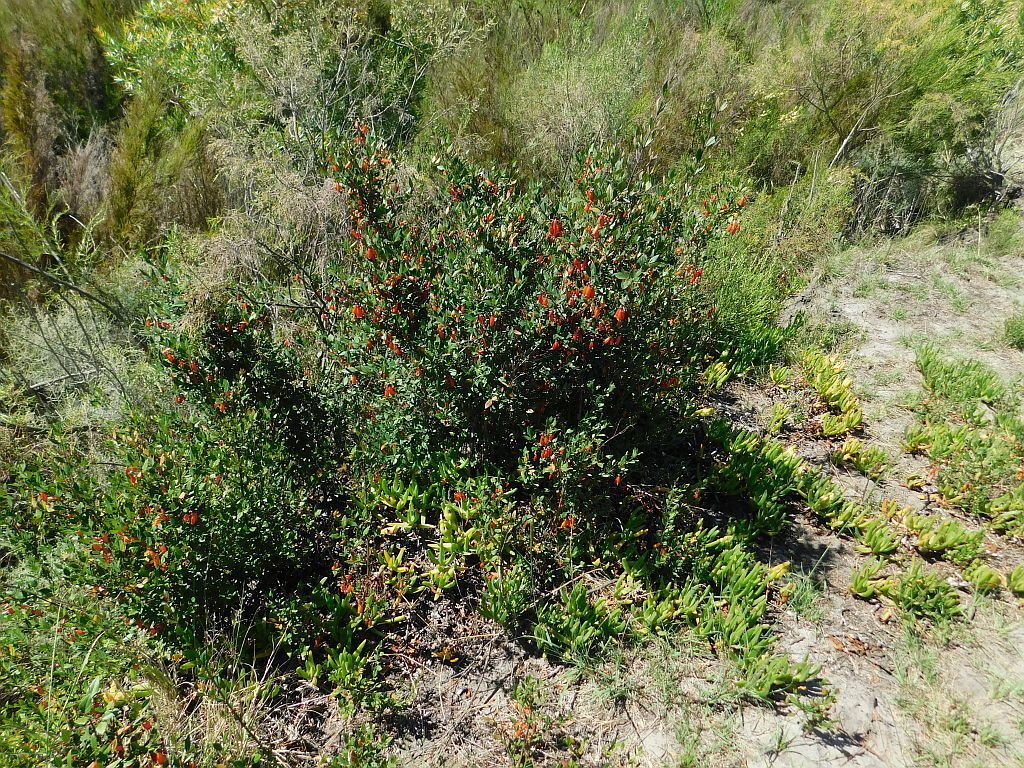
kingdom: Plantae
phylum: Tracheophyta
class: Magnoliopsida
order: Lamiales
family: Stilbaceae
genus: Halleria
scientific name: Halleria elliptica
